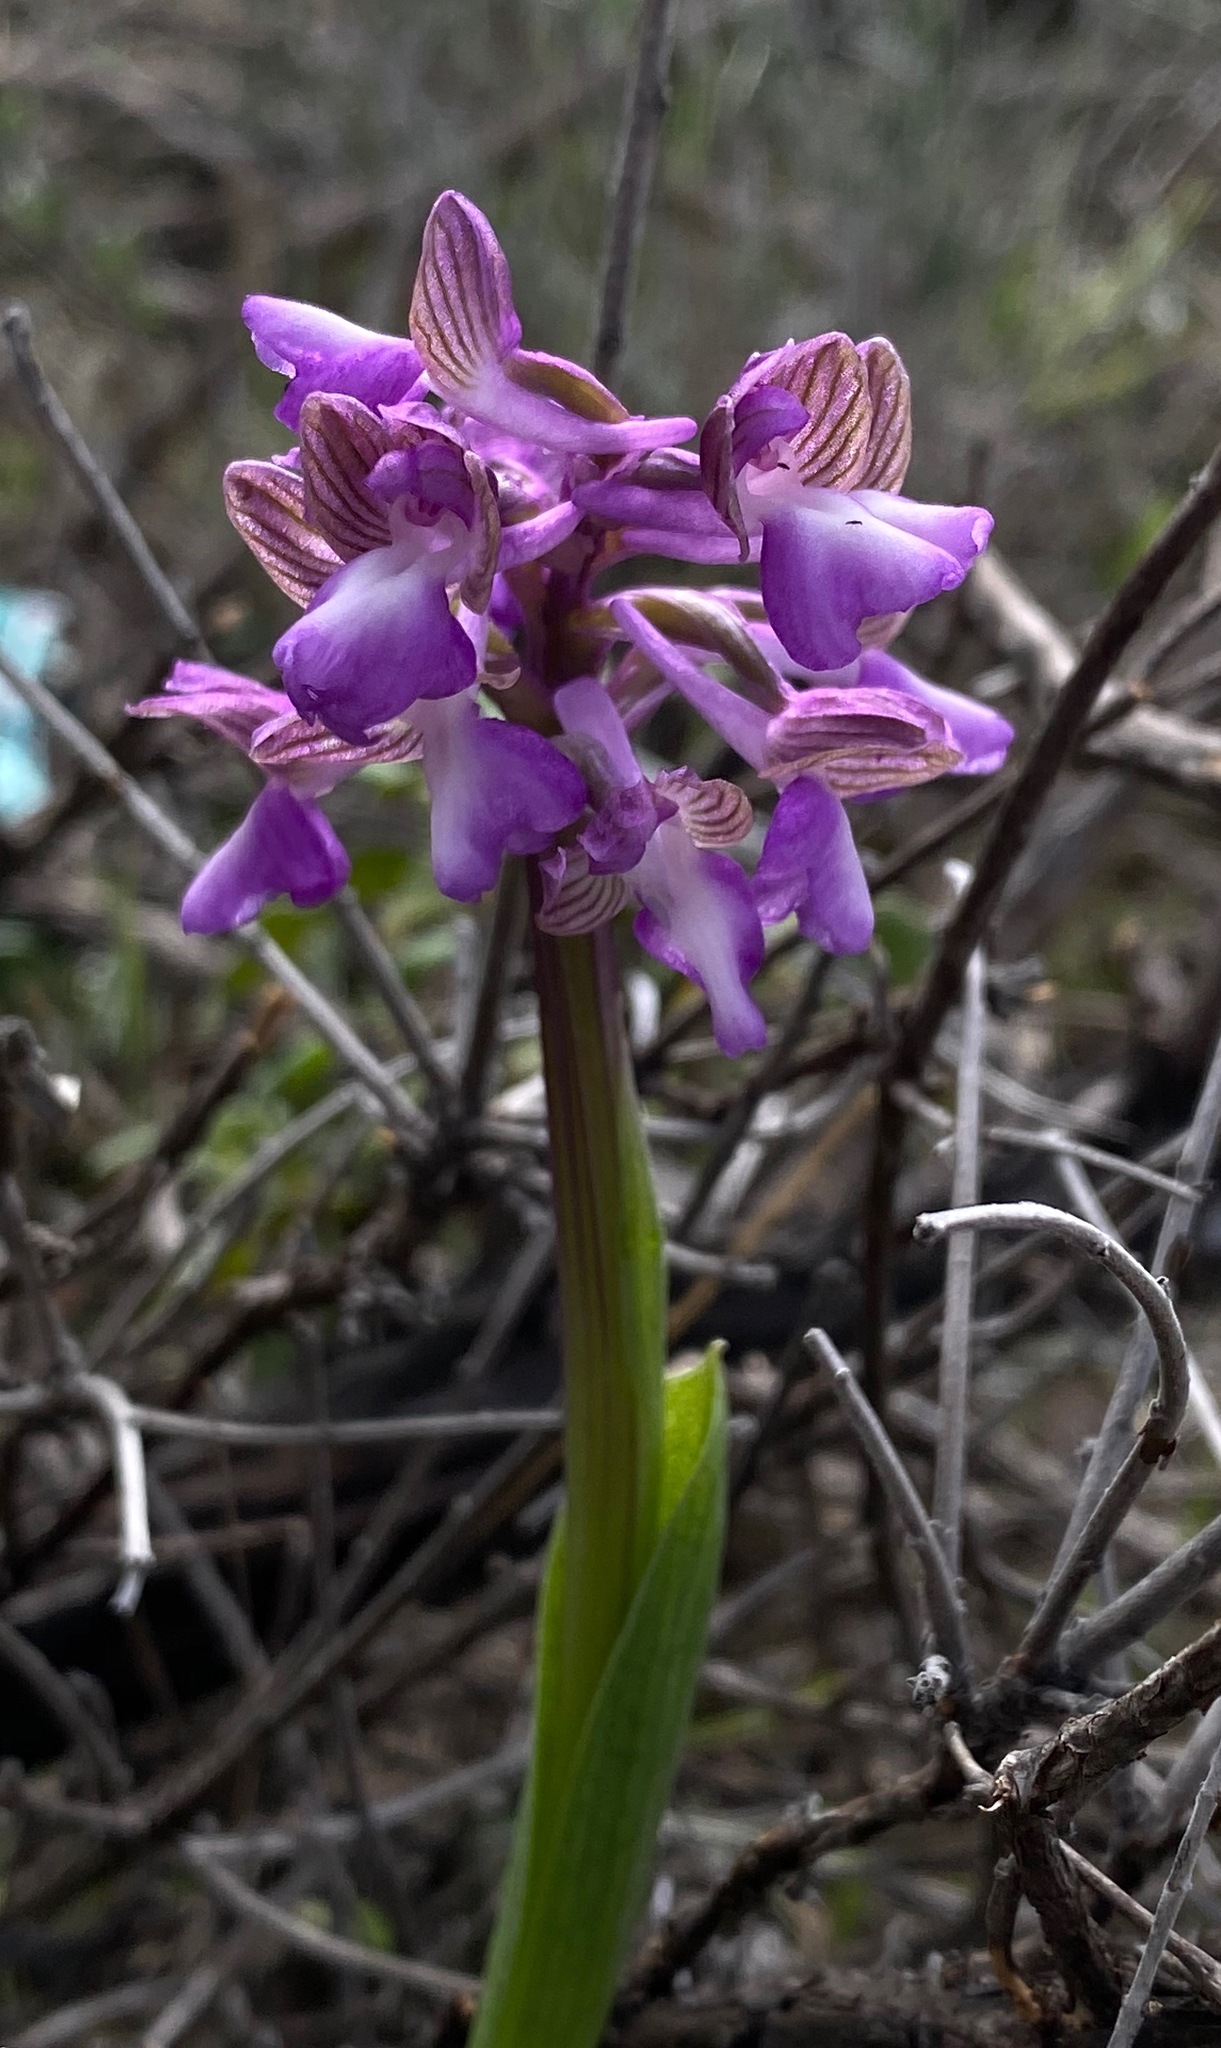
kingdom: Plantae
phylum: Tracheophyta
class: Liliopsida
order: Asparagales
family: Orchidaceae
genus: Anacamptis
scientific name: Anacamptis morio
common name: Green-winged orchid
